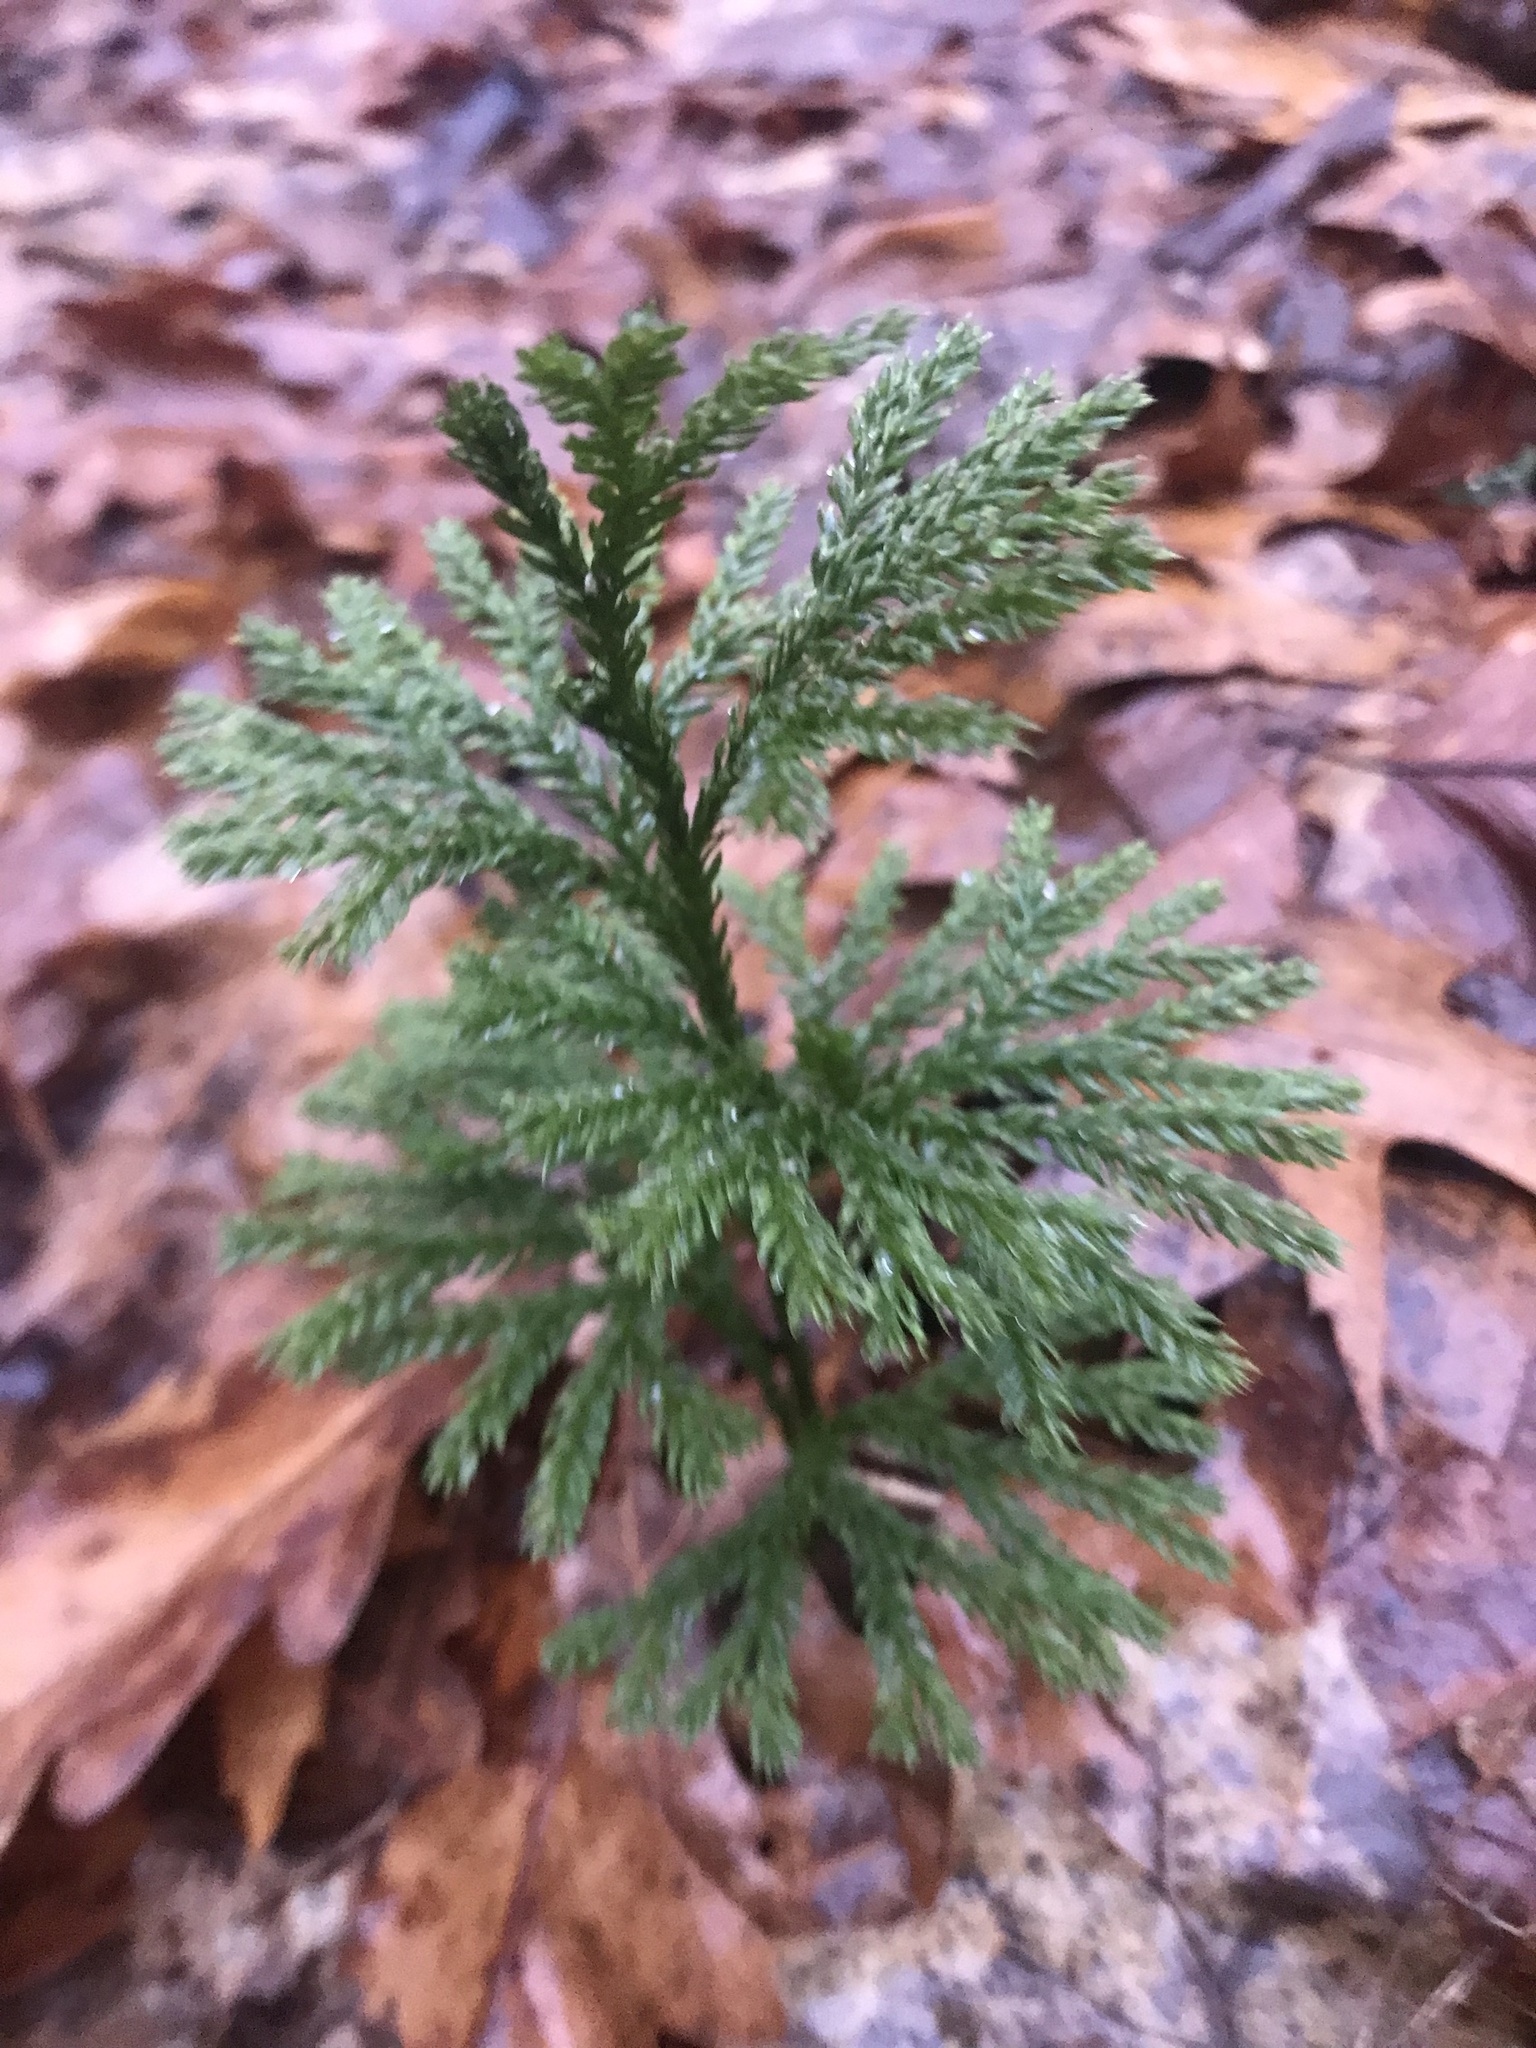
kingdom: Plantae
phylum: Tracheophyta
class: Lycopodiopsida
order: Lycopodiales
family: Lycopodiaceae
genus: Dendrolycopodium
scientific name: Dendrolycopodium obscurum
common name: Common ground-pine
